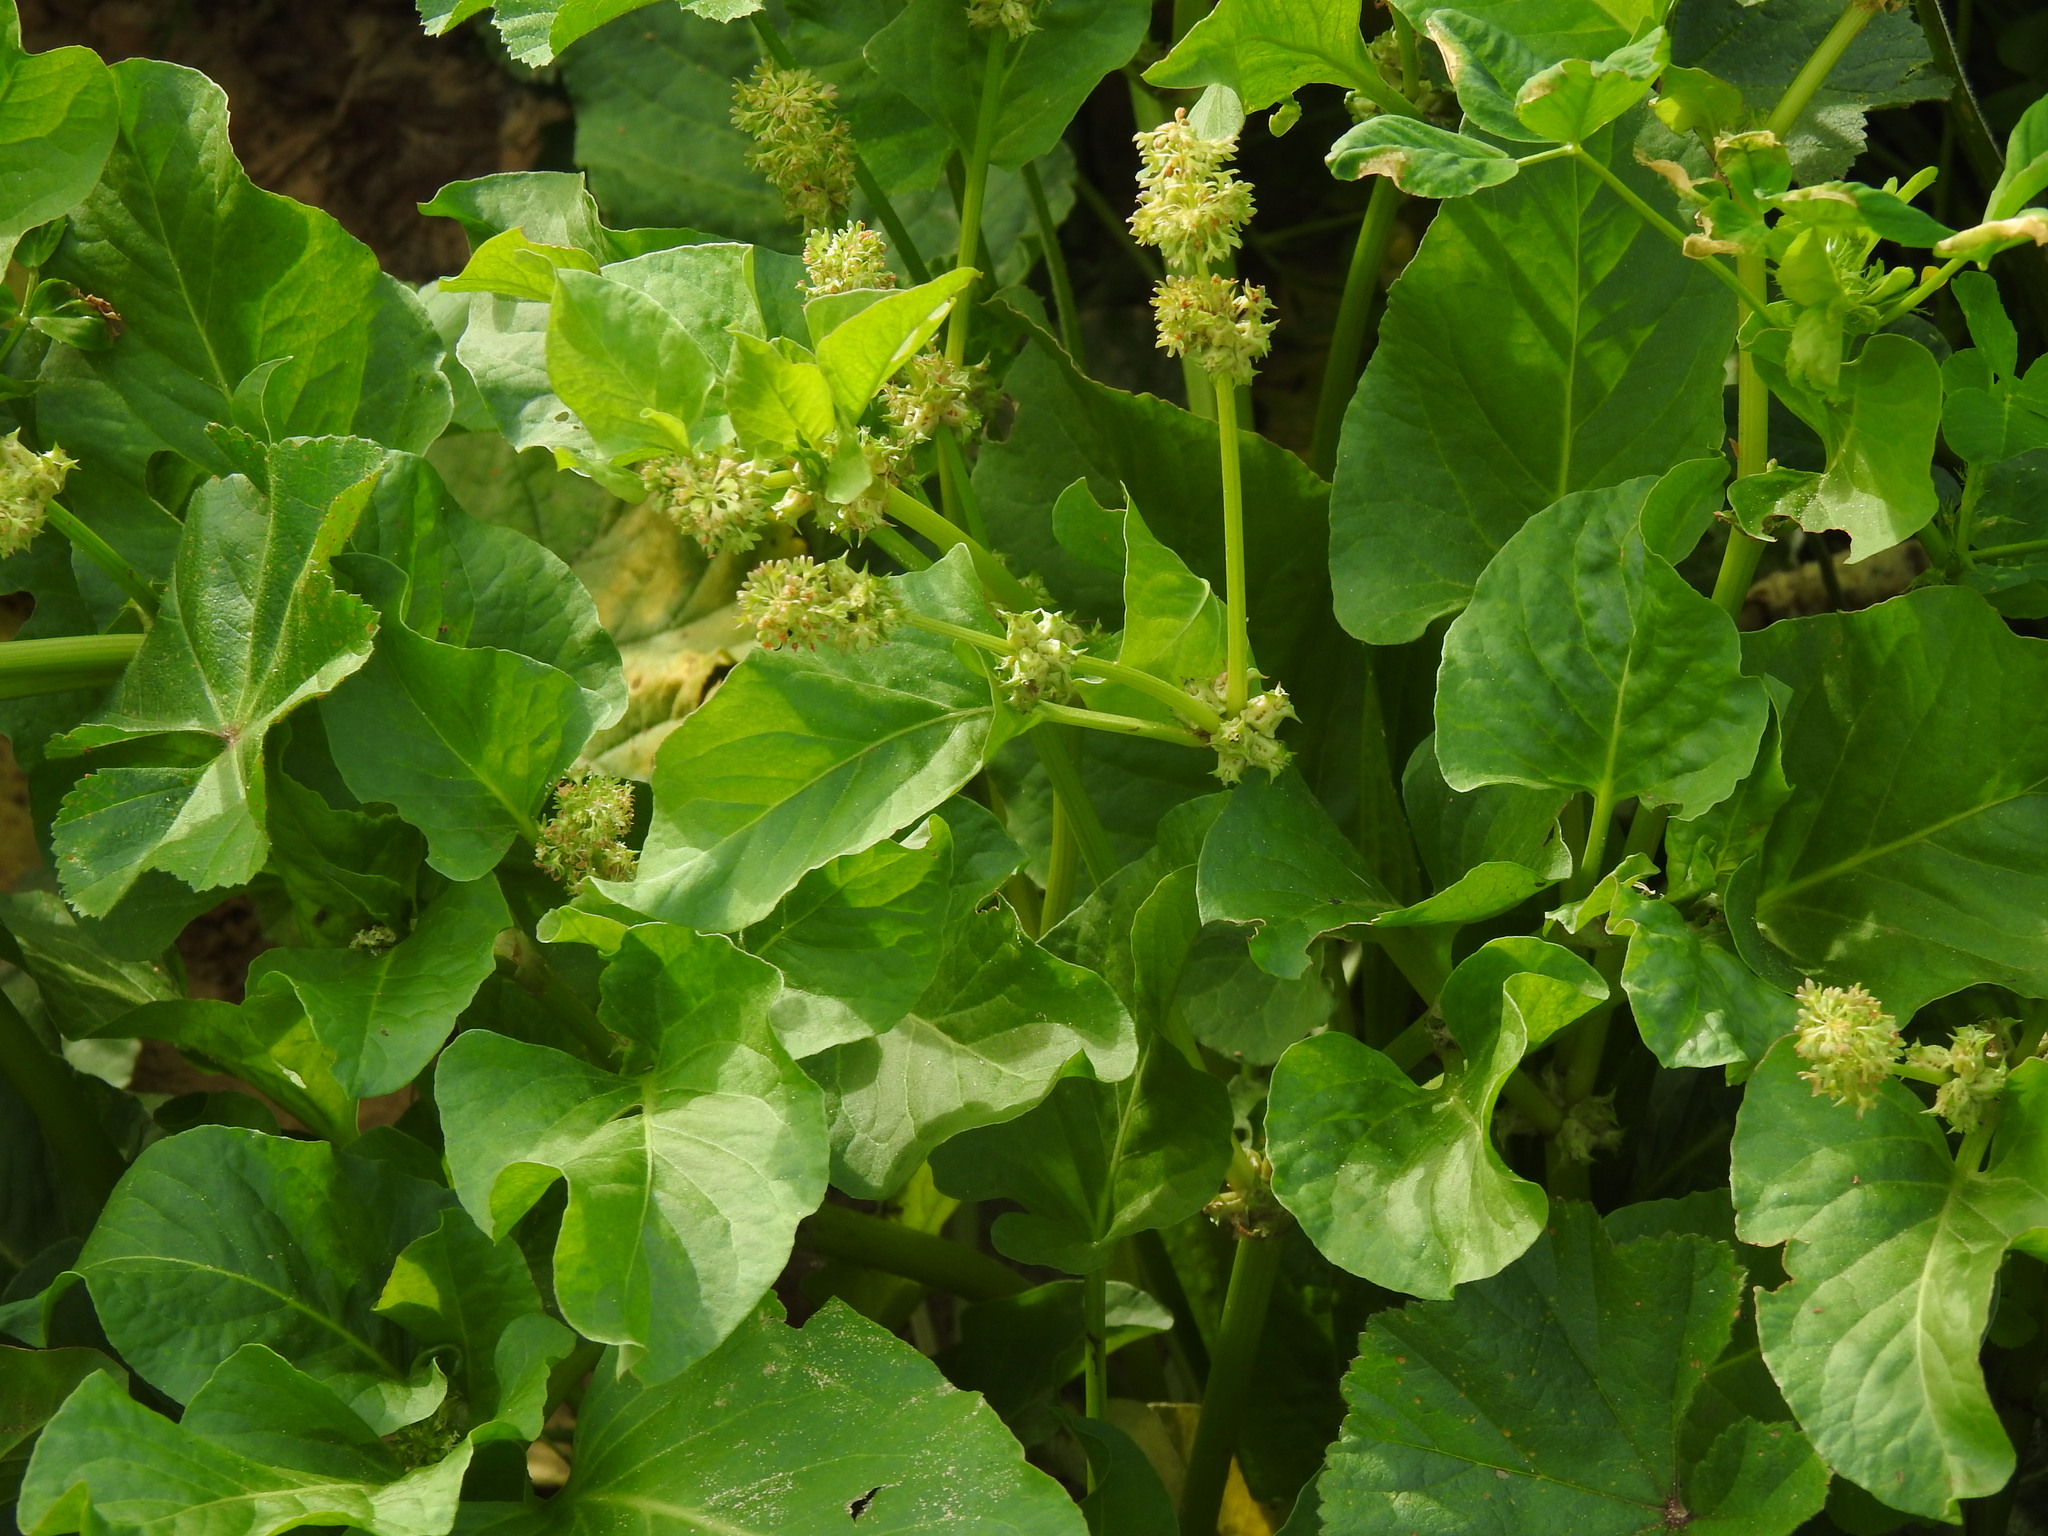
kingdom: Plantae
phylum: Tracheophyta
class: Magnoliopsida
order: Caryophyllales
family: Polygonaceae
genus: Rumex
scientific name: Rumex spinosus
